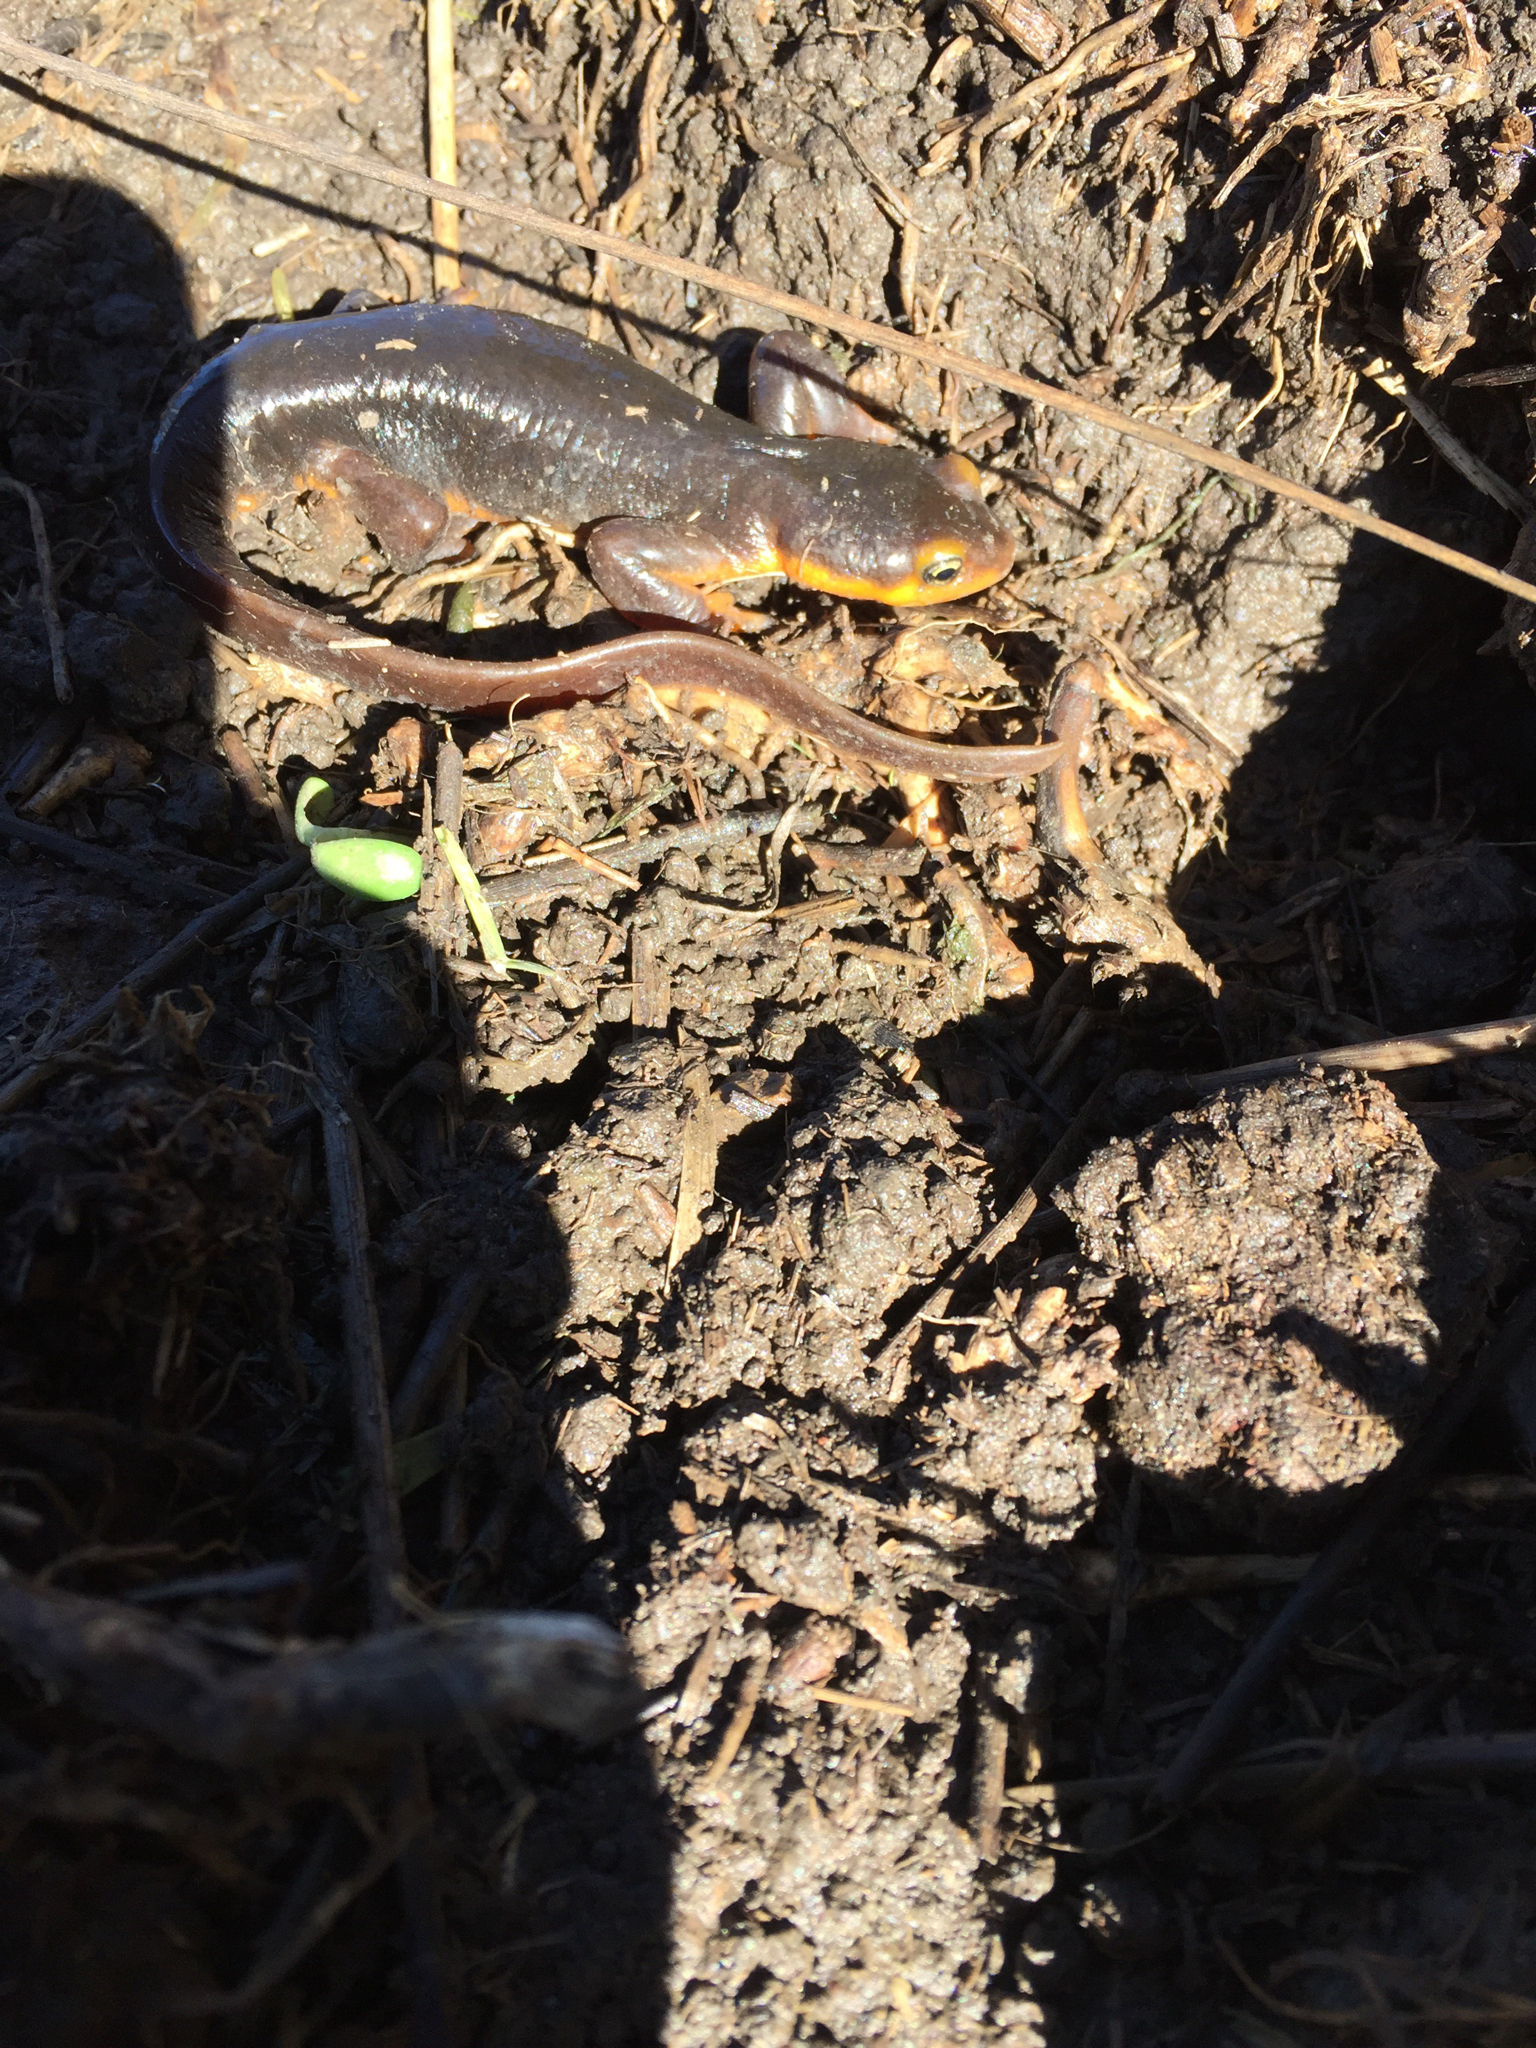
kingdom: Animalia
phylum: Chordata
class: Amphibia
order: Caudata
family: Salamandridae
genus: Taricha
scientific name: Taricha torosa
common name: California newt
